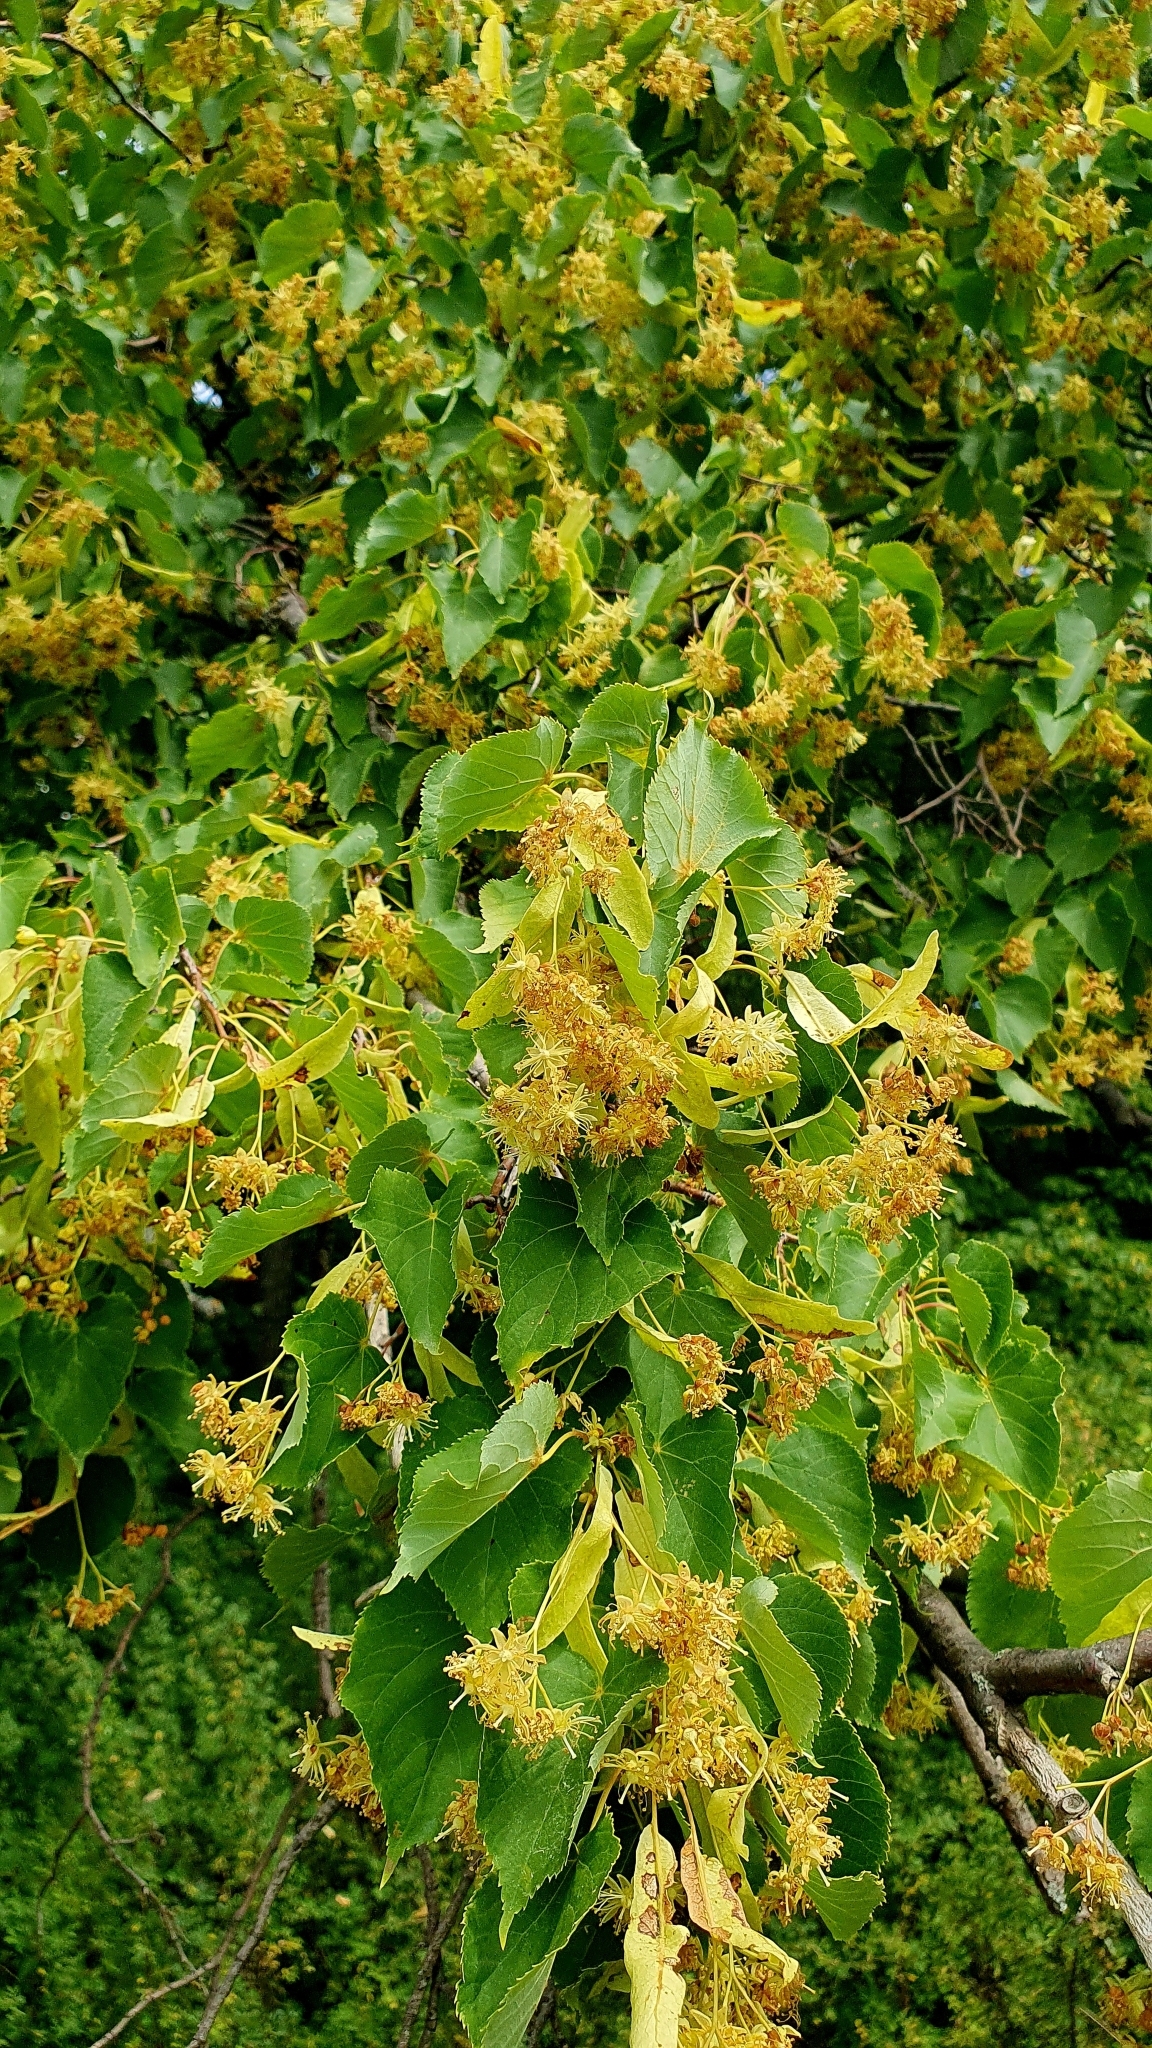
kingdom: Plantae
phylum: Tracheophyta
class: Magnoliopsida
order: Malvales
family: Malvaceae
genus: Tilia
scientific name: Tilia cordata
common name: Small-leaved lime
